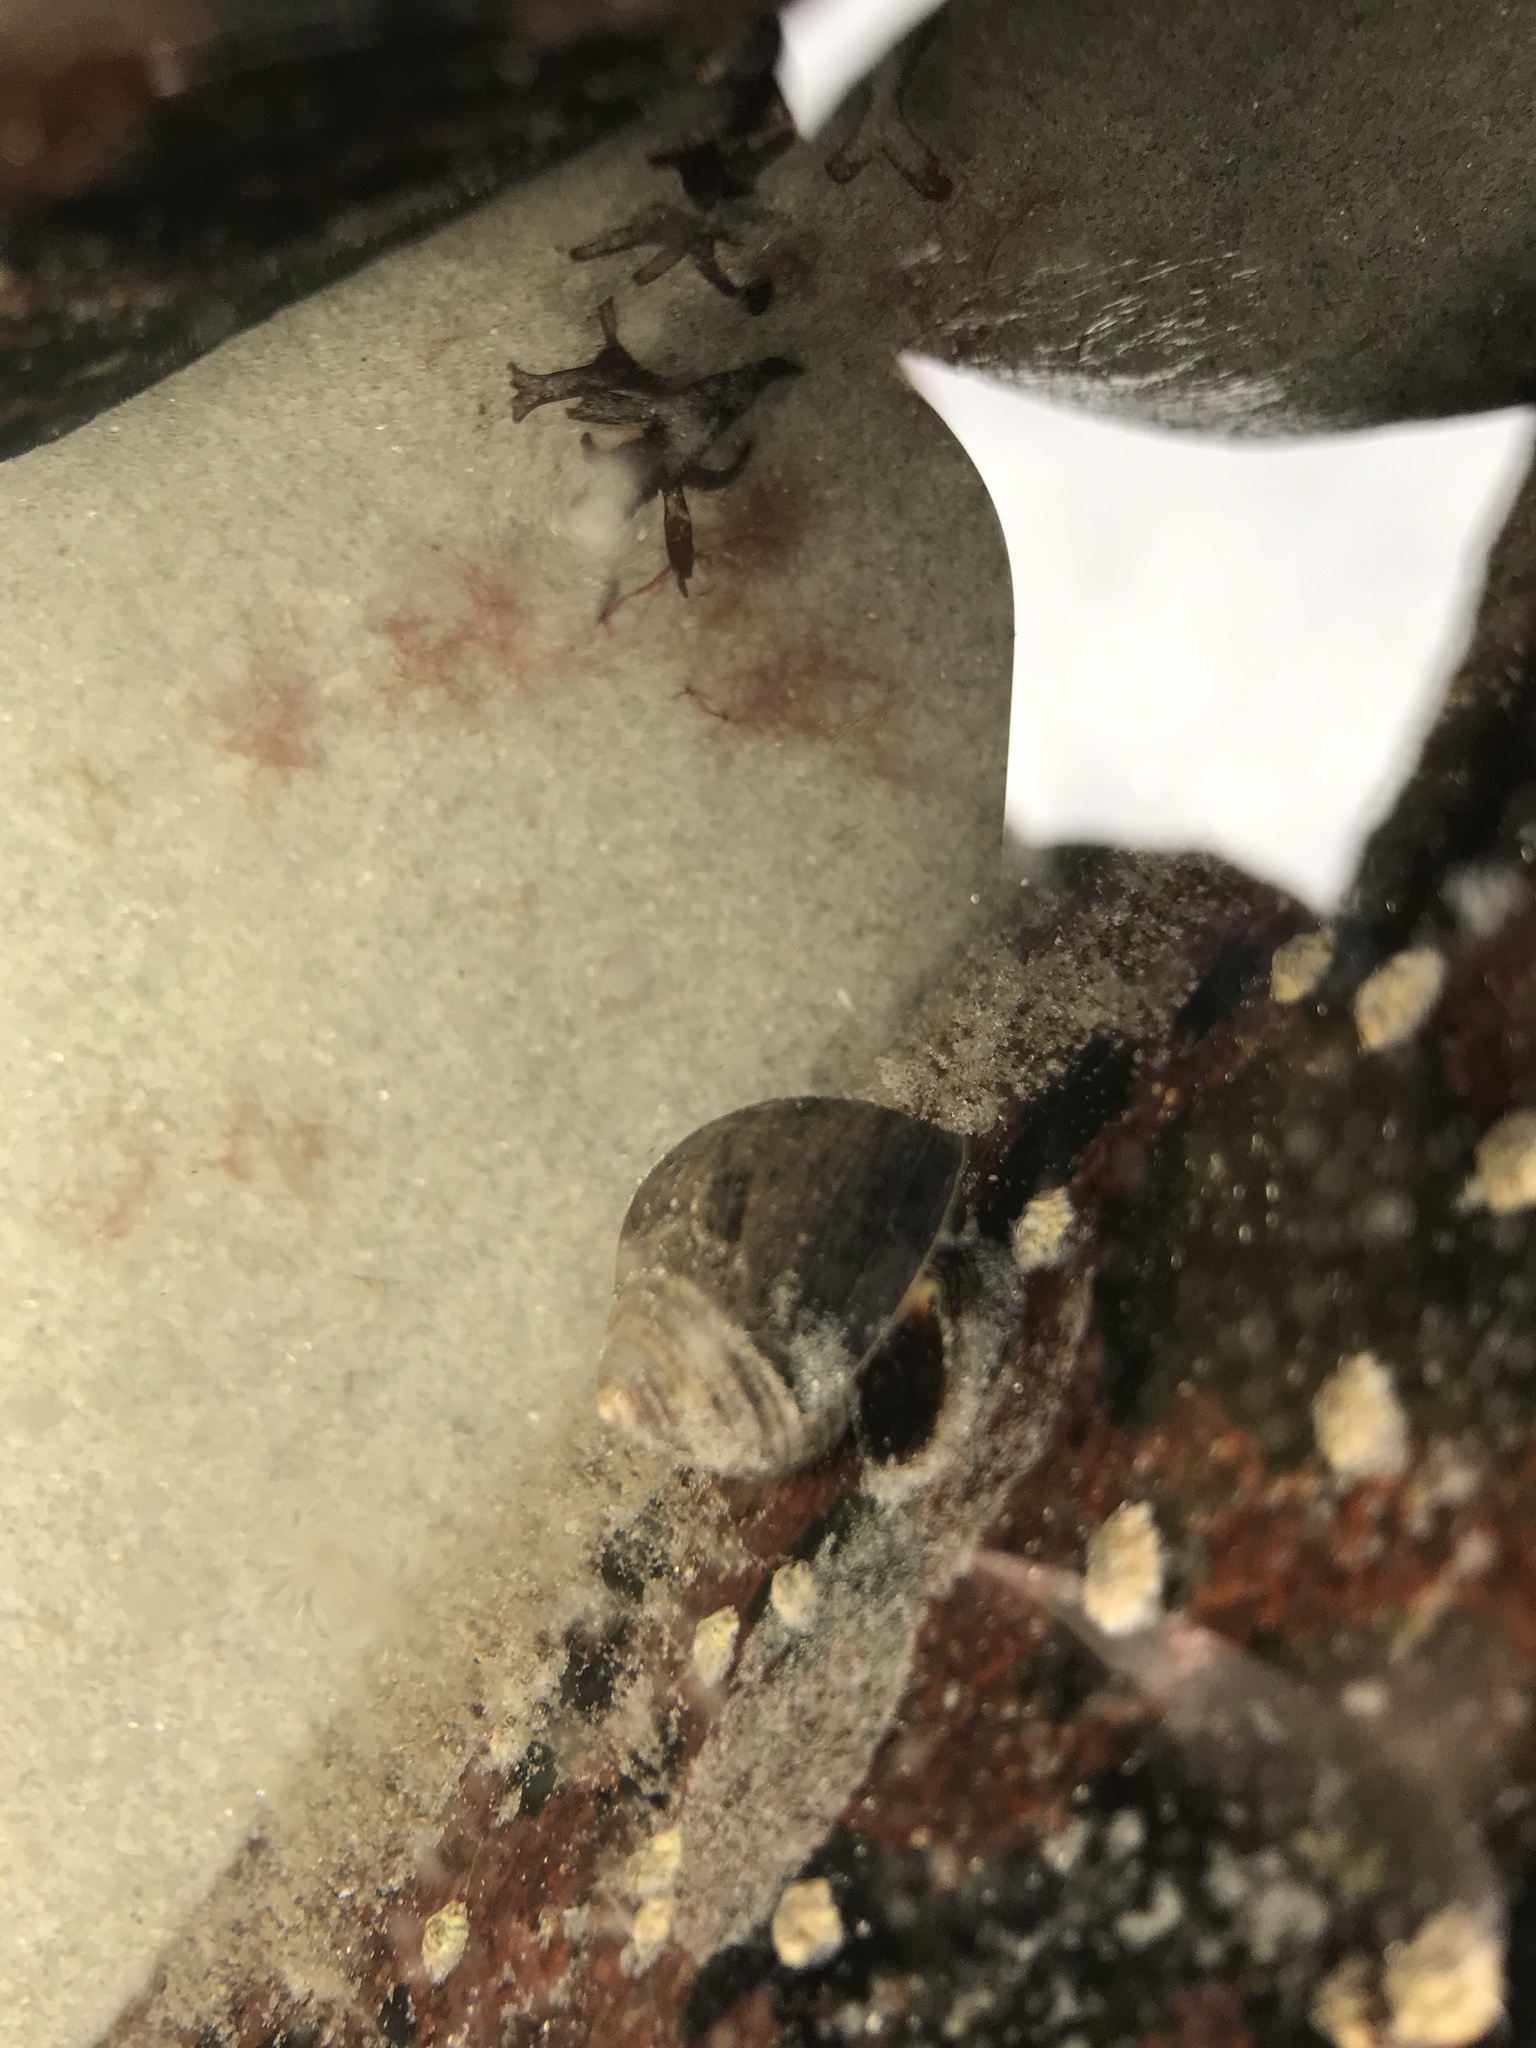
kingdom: Animalia
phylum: Mollusca
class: Gastropoda
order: Littorinimorpha
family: Littorinidae
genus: Littorina
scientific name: Littorina littorea
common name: Common periwinkle
